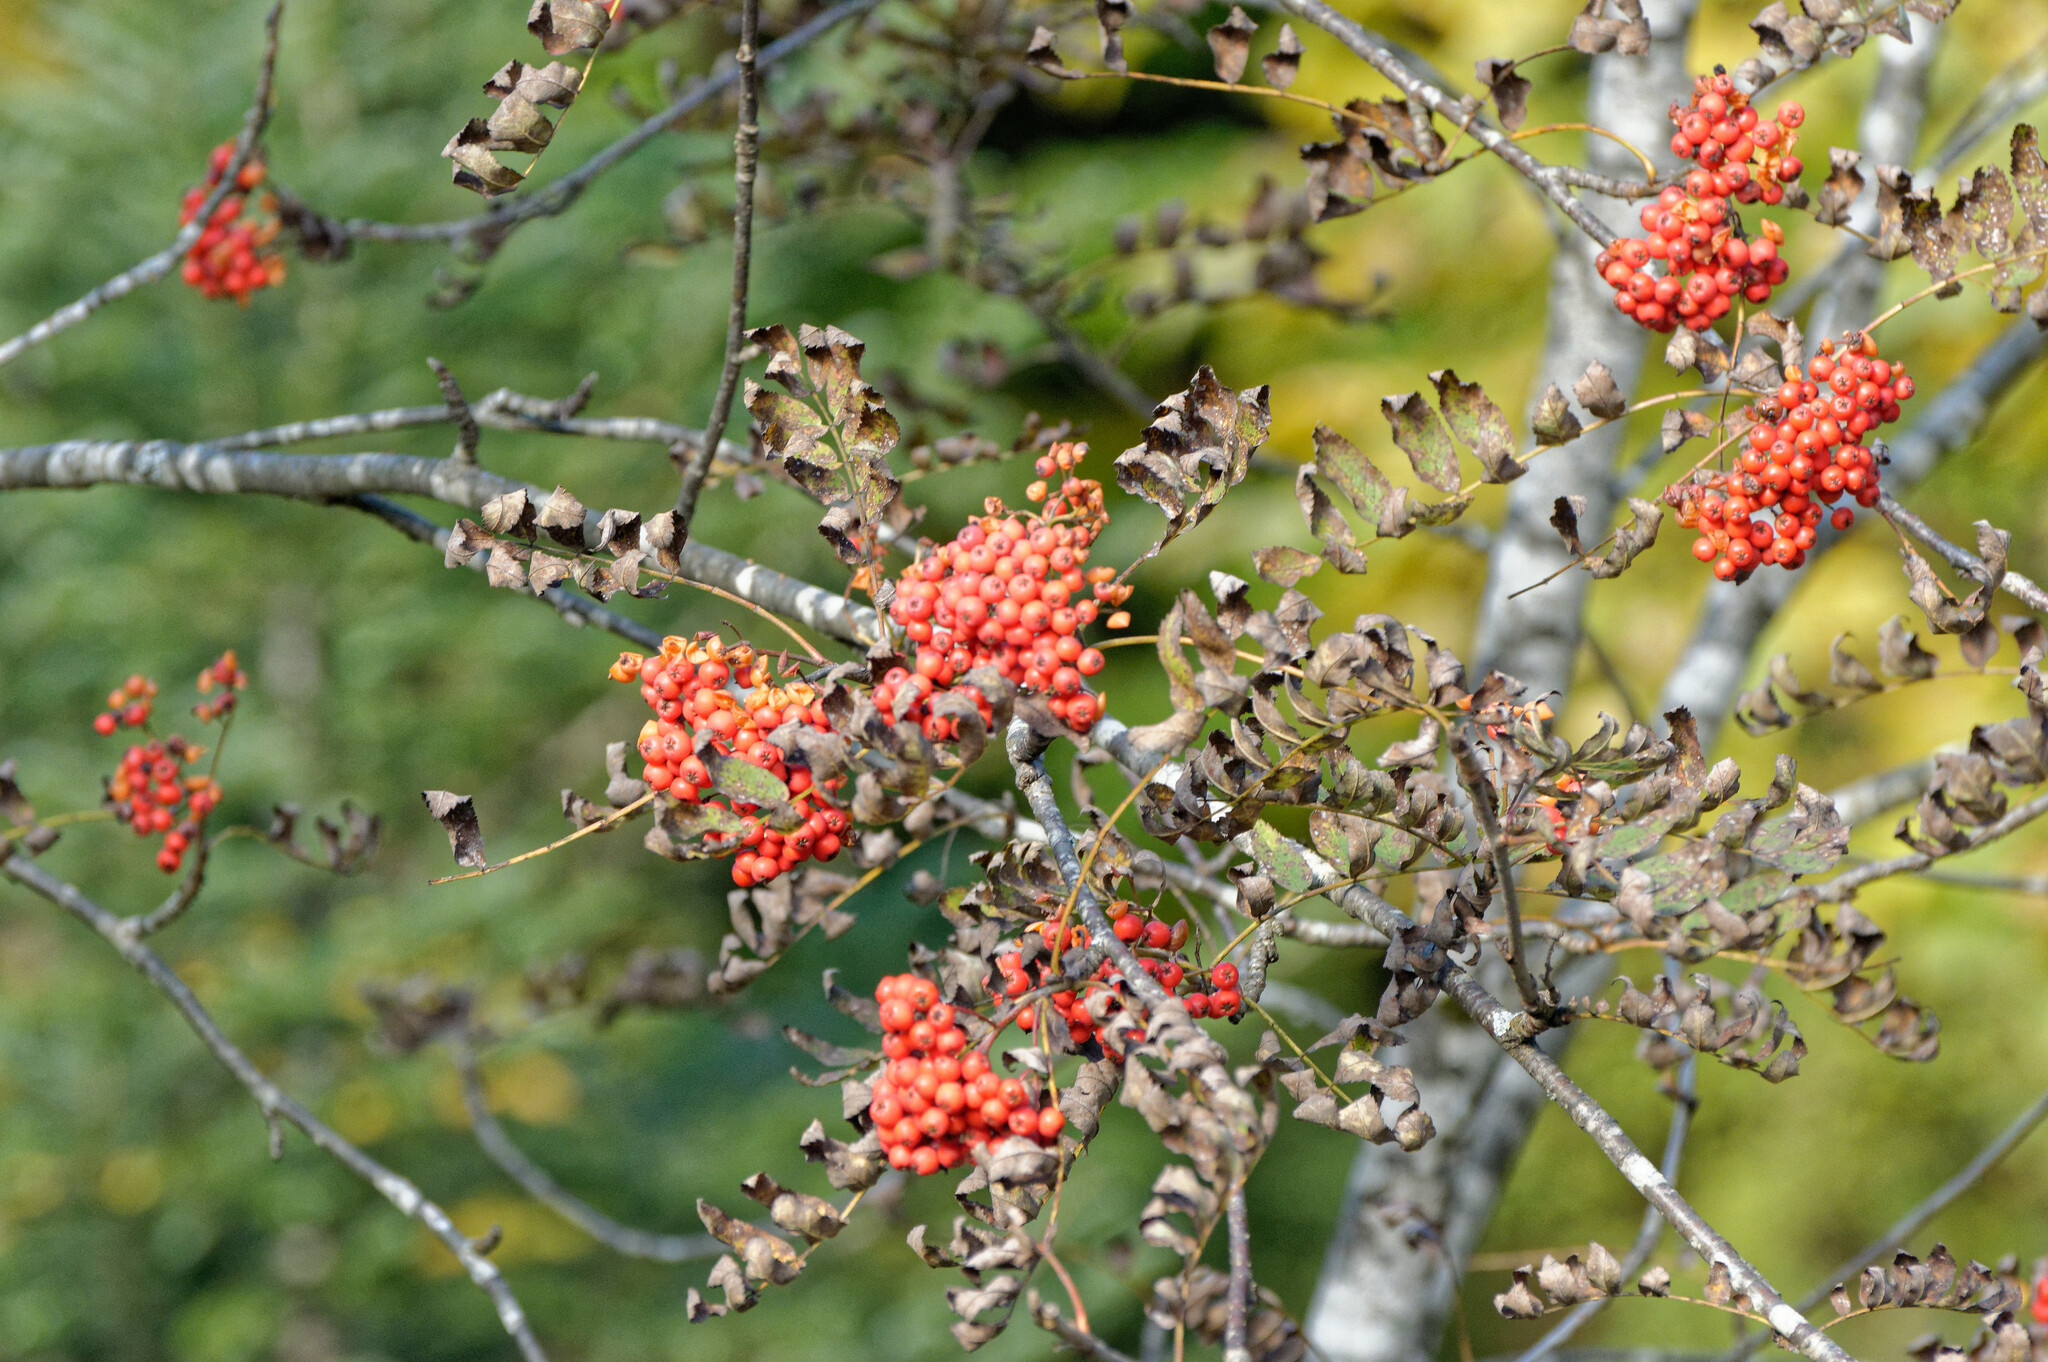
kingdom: Plantae
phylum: Tracheophyta
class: Magnoliopsida
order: Rosales
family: Rosaceae
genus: Sorbus
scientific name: Sorbus aucuparia
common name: Rowan
